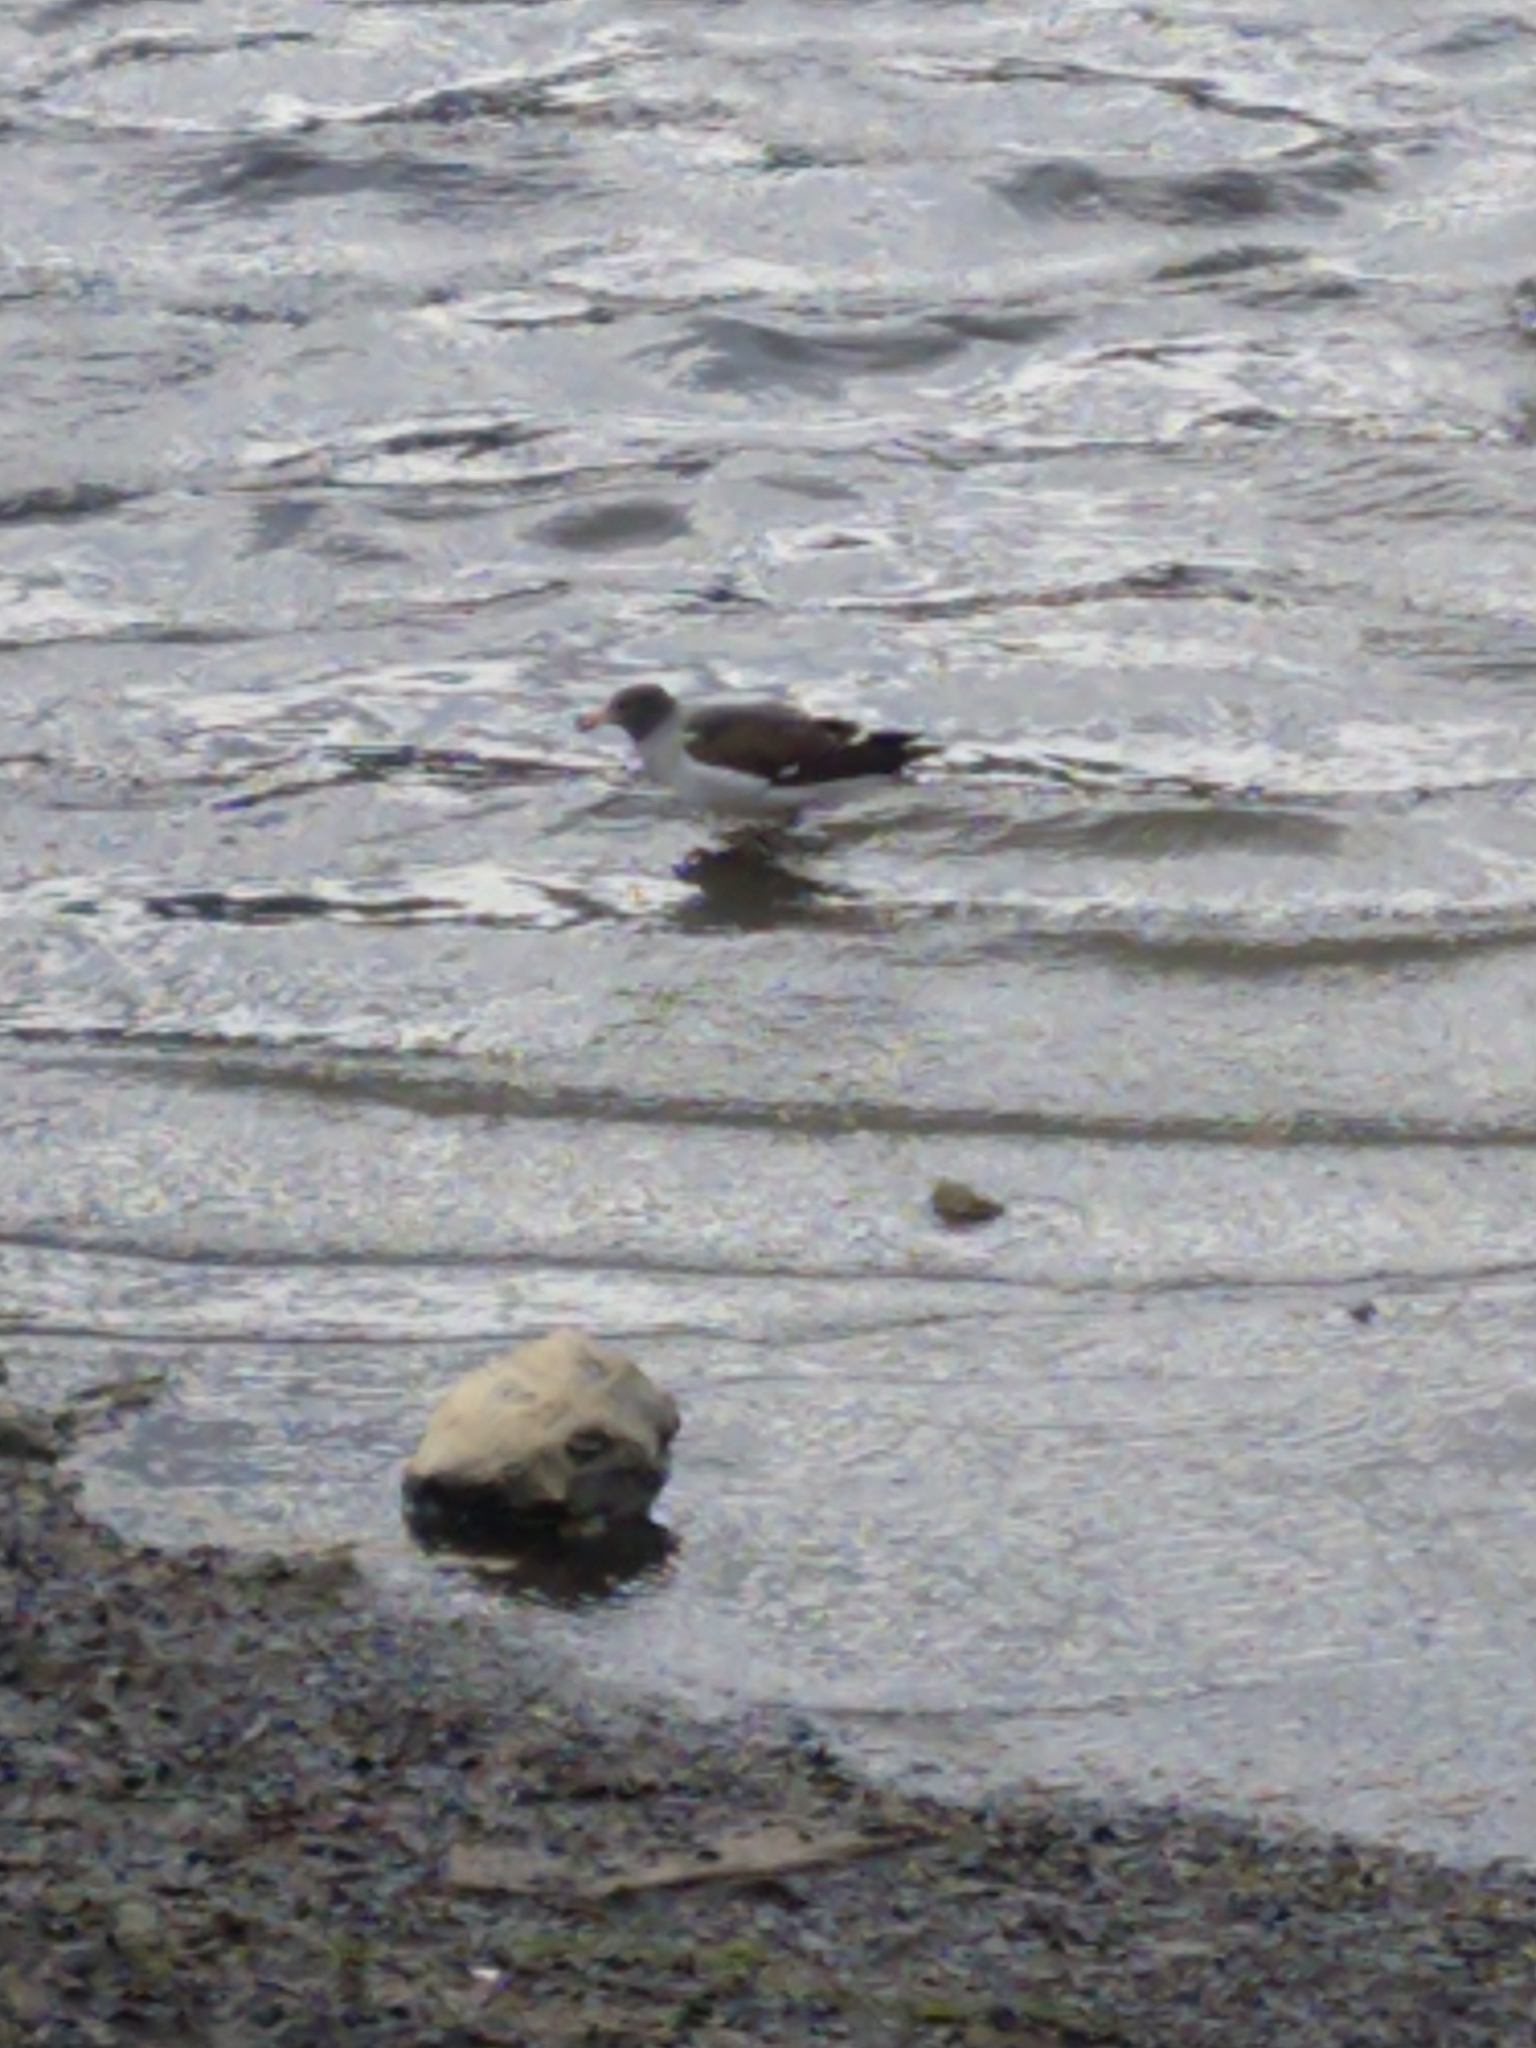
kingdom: Animalia
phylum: Chordata
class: Aves
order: Charadriiformes
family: Laridae
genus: Leucophaeus
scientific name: Leucophaeus scoresbii
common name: Dolphin gull
